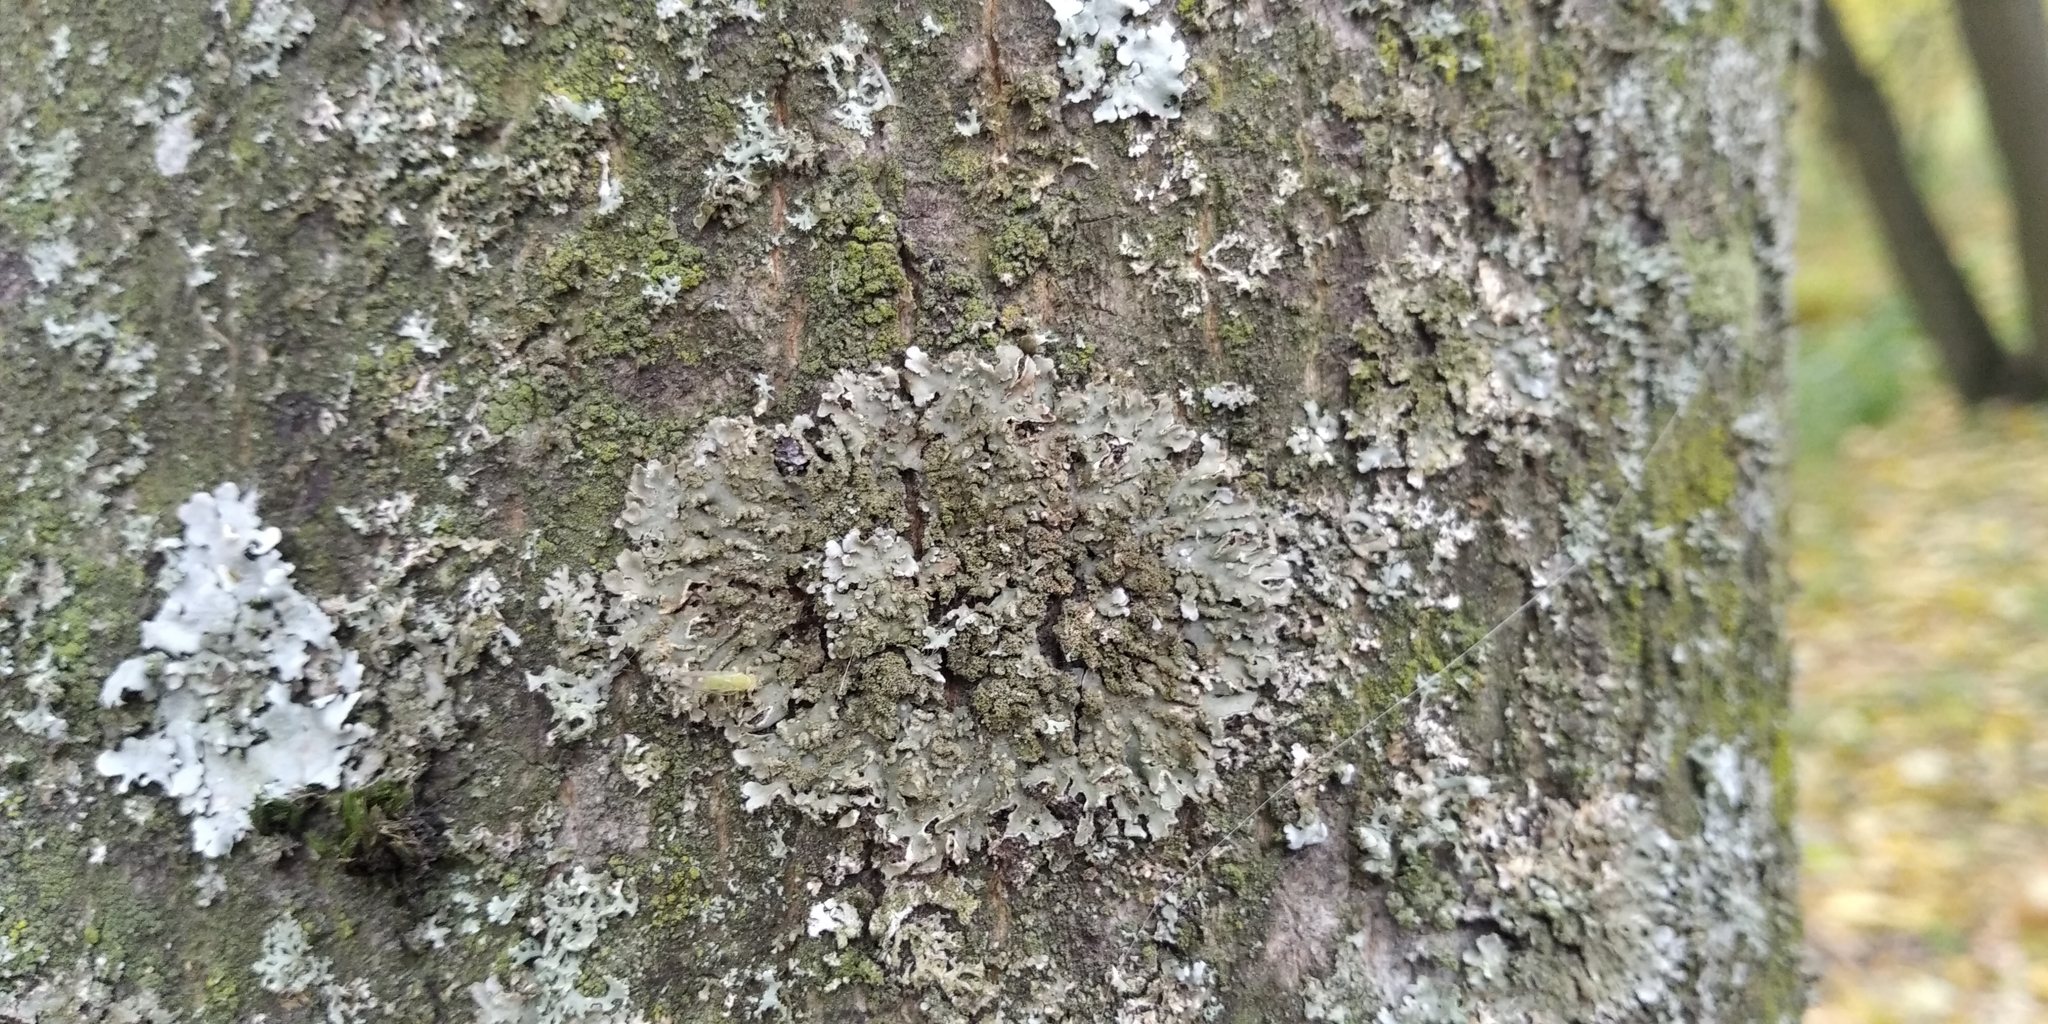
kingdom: Fungi
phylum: Ascomycota
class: Lecanoromycetes
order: Caliciales
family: Physciaceae
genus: Physconia
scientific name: Physconia enteroxantha
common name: Yellow-edged frost lichen
